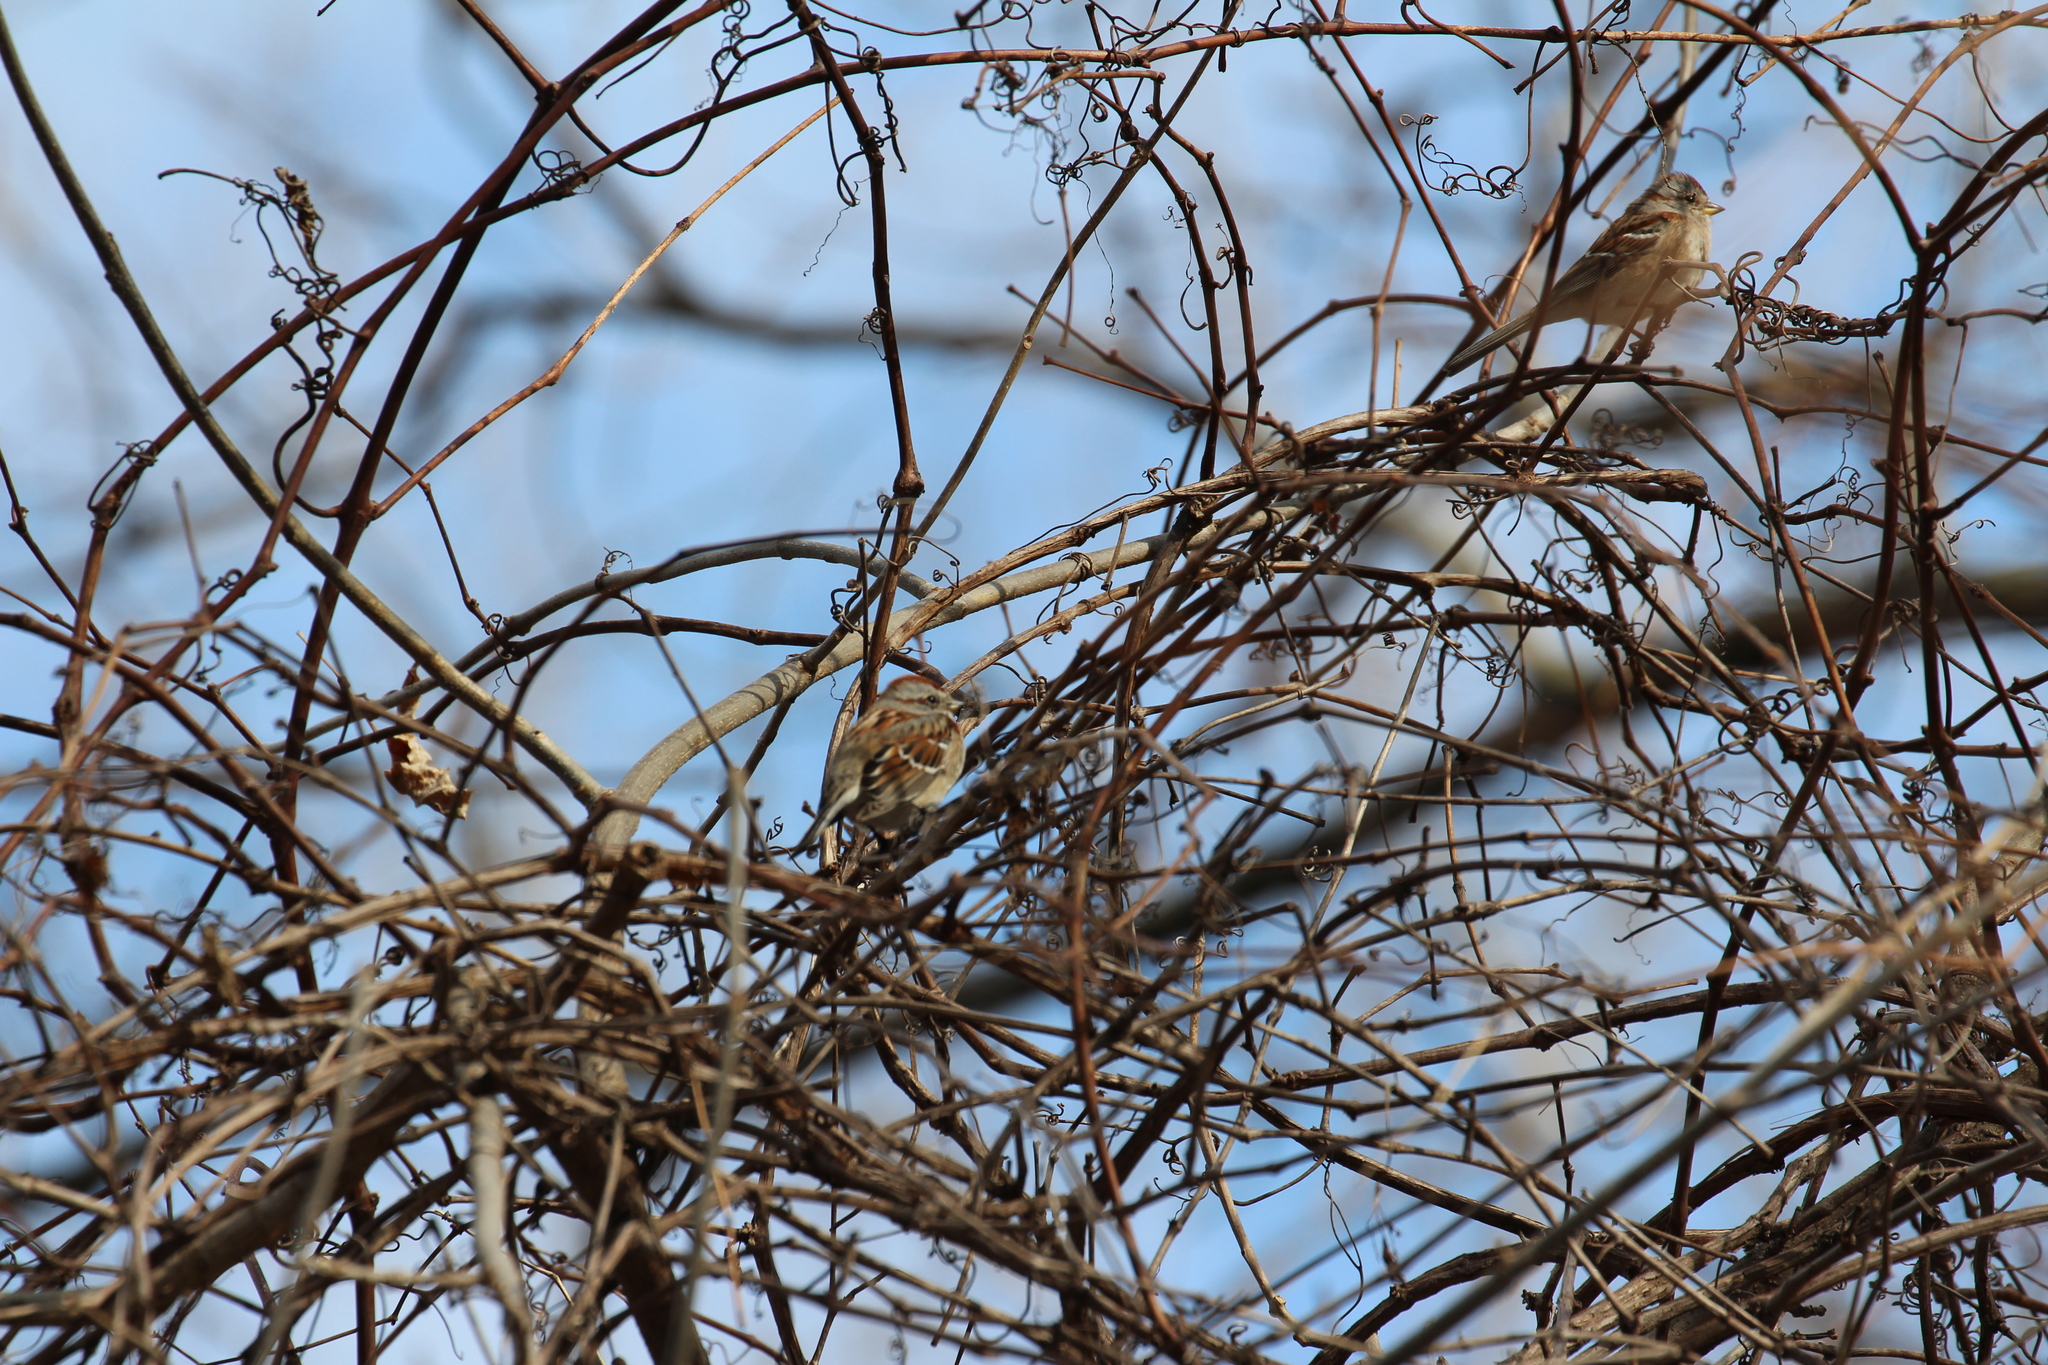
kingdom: Animalia
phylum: Chordata
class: Aves
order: Passeriformes
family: Passerellidae
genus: Spizelloides
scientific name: Spizelloides arborea
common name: American tree sparrow
